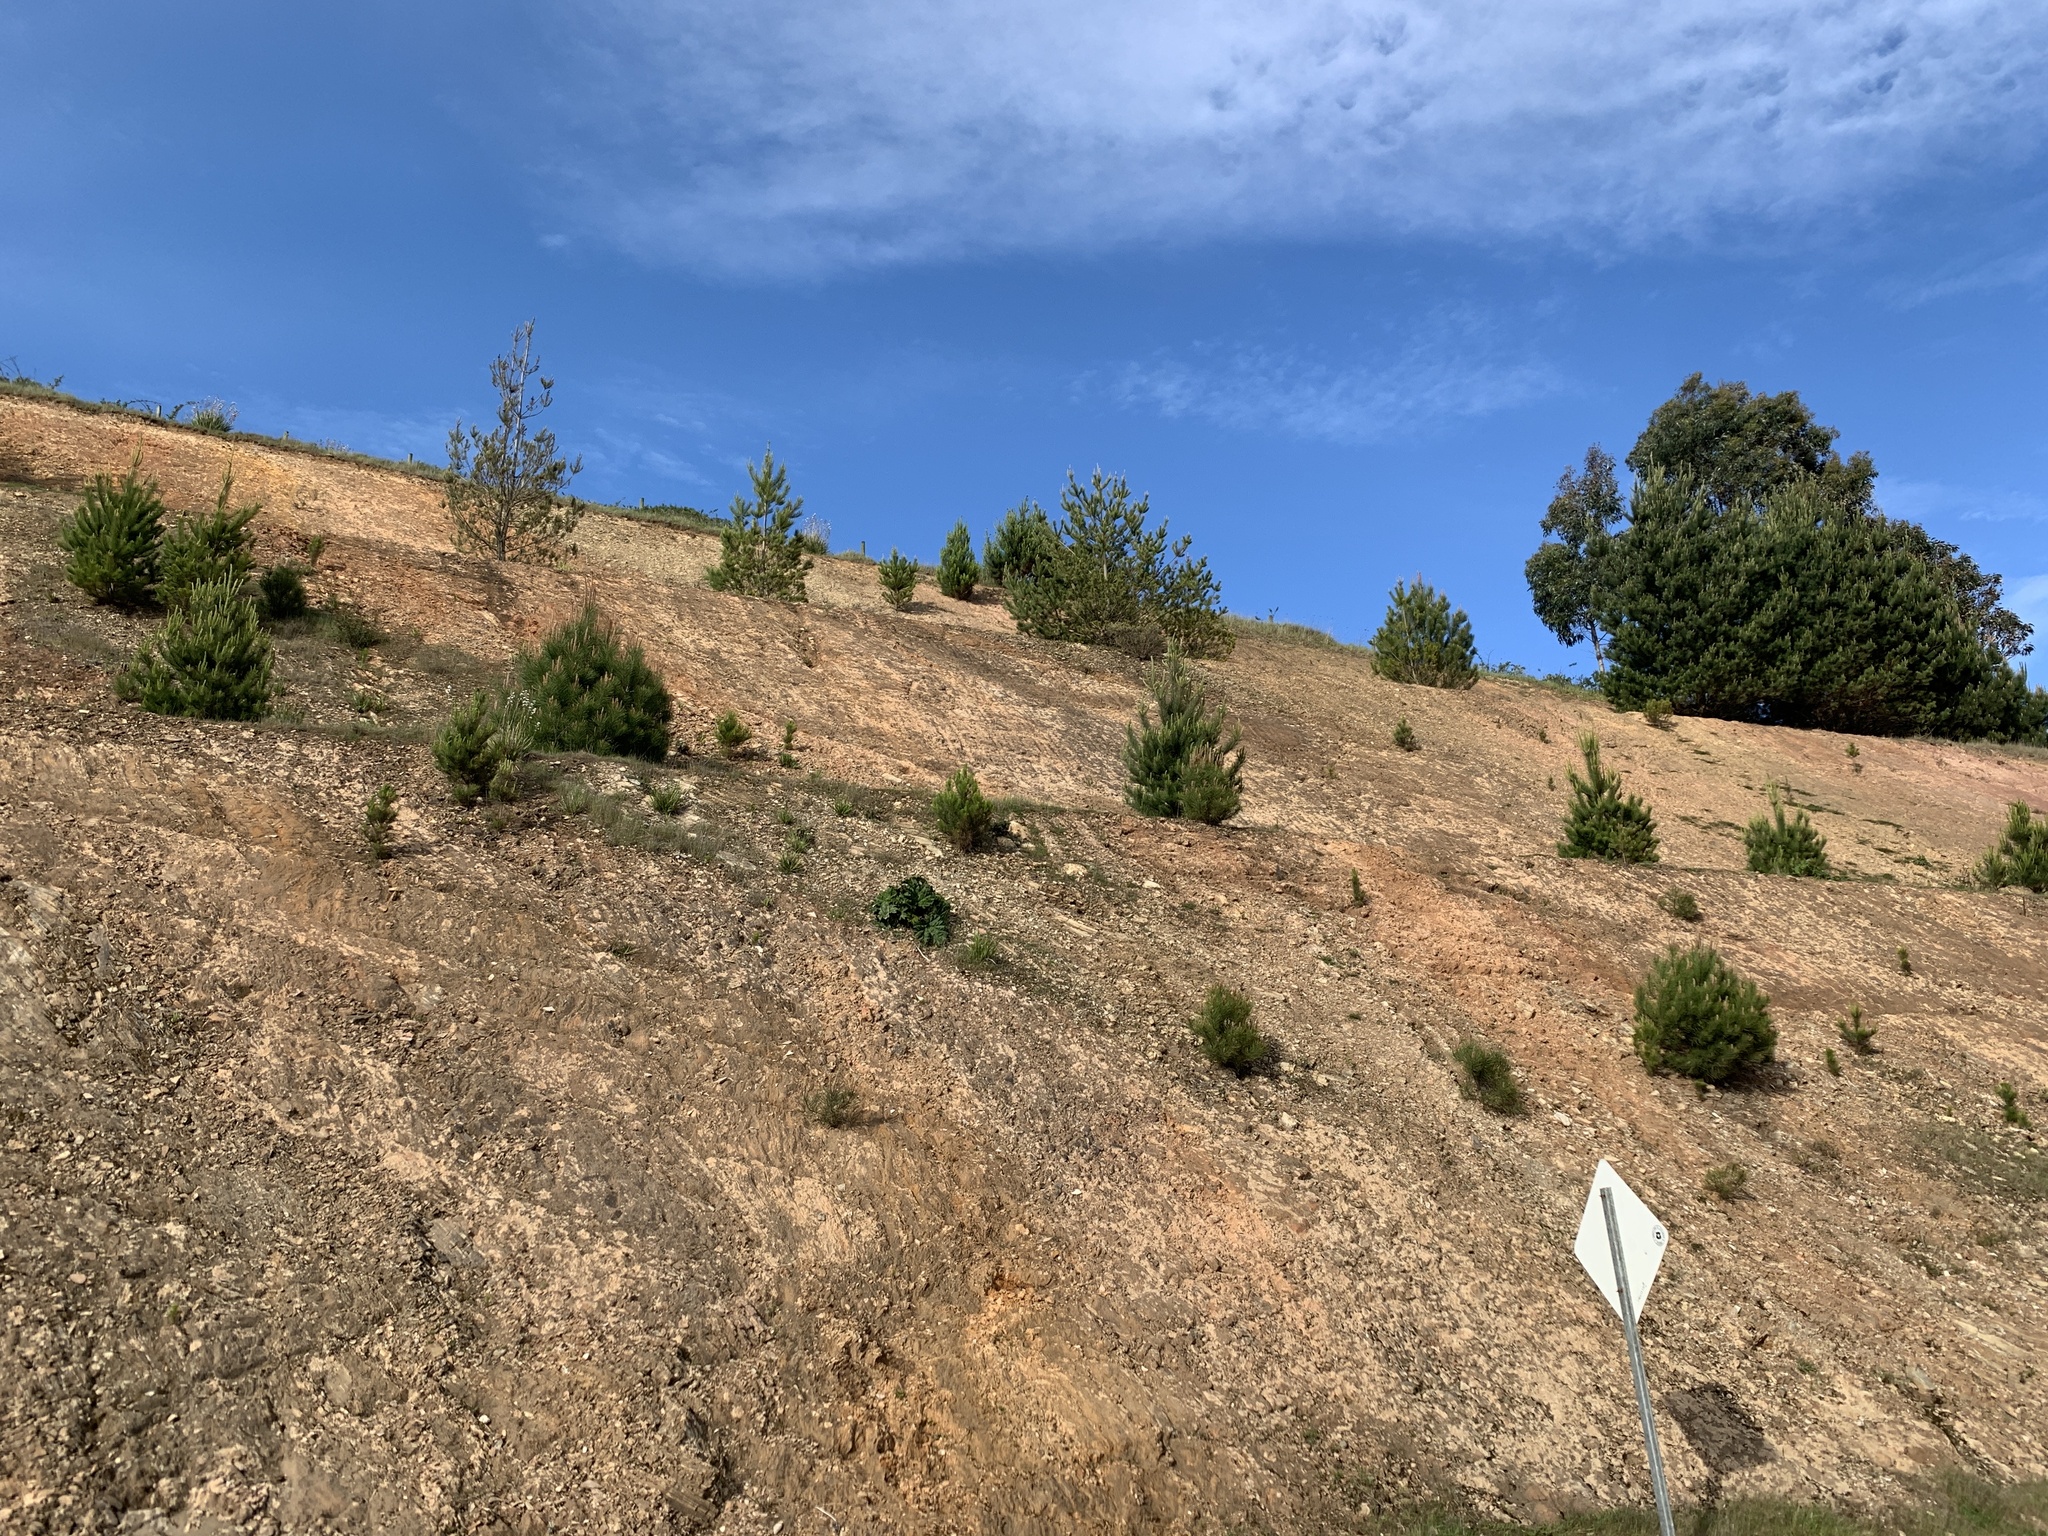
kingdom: Plantae
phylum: Tracheophyta
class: Pinopsida
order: Pinales
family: Pinaceae
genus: Pinus
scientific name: Pinus radiata
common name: Monterey pine
